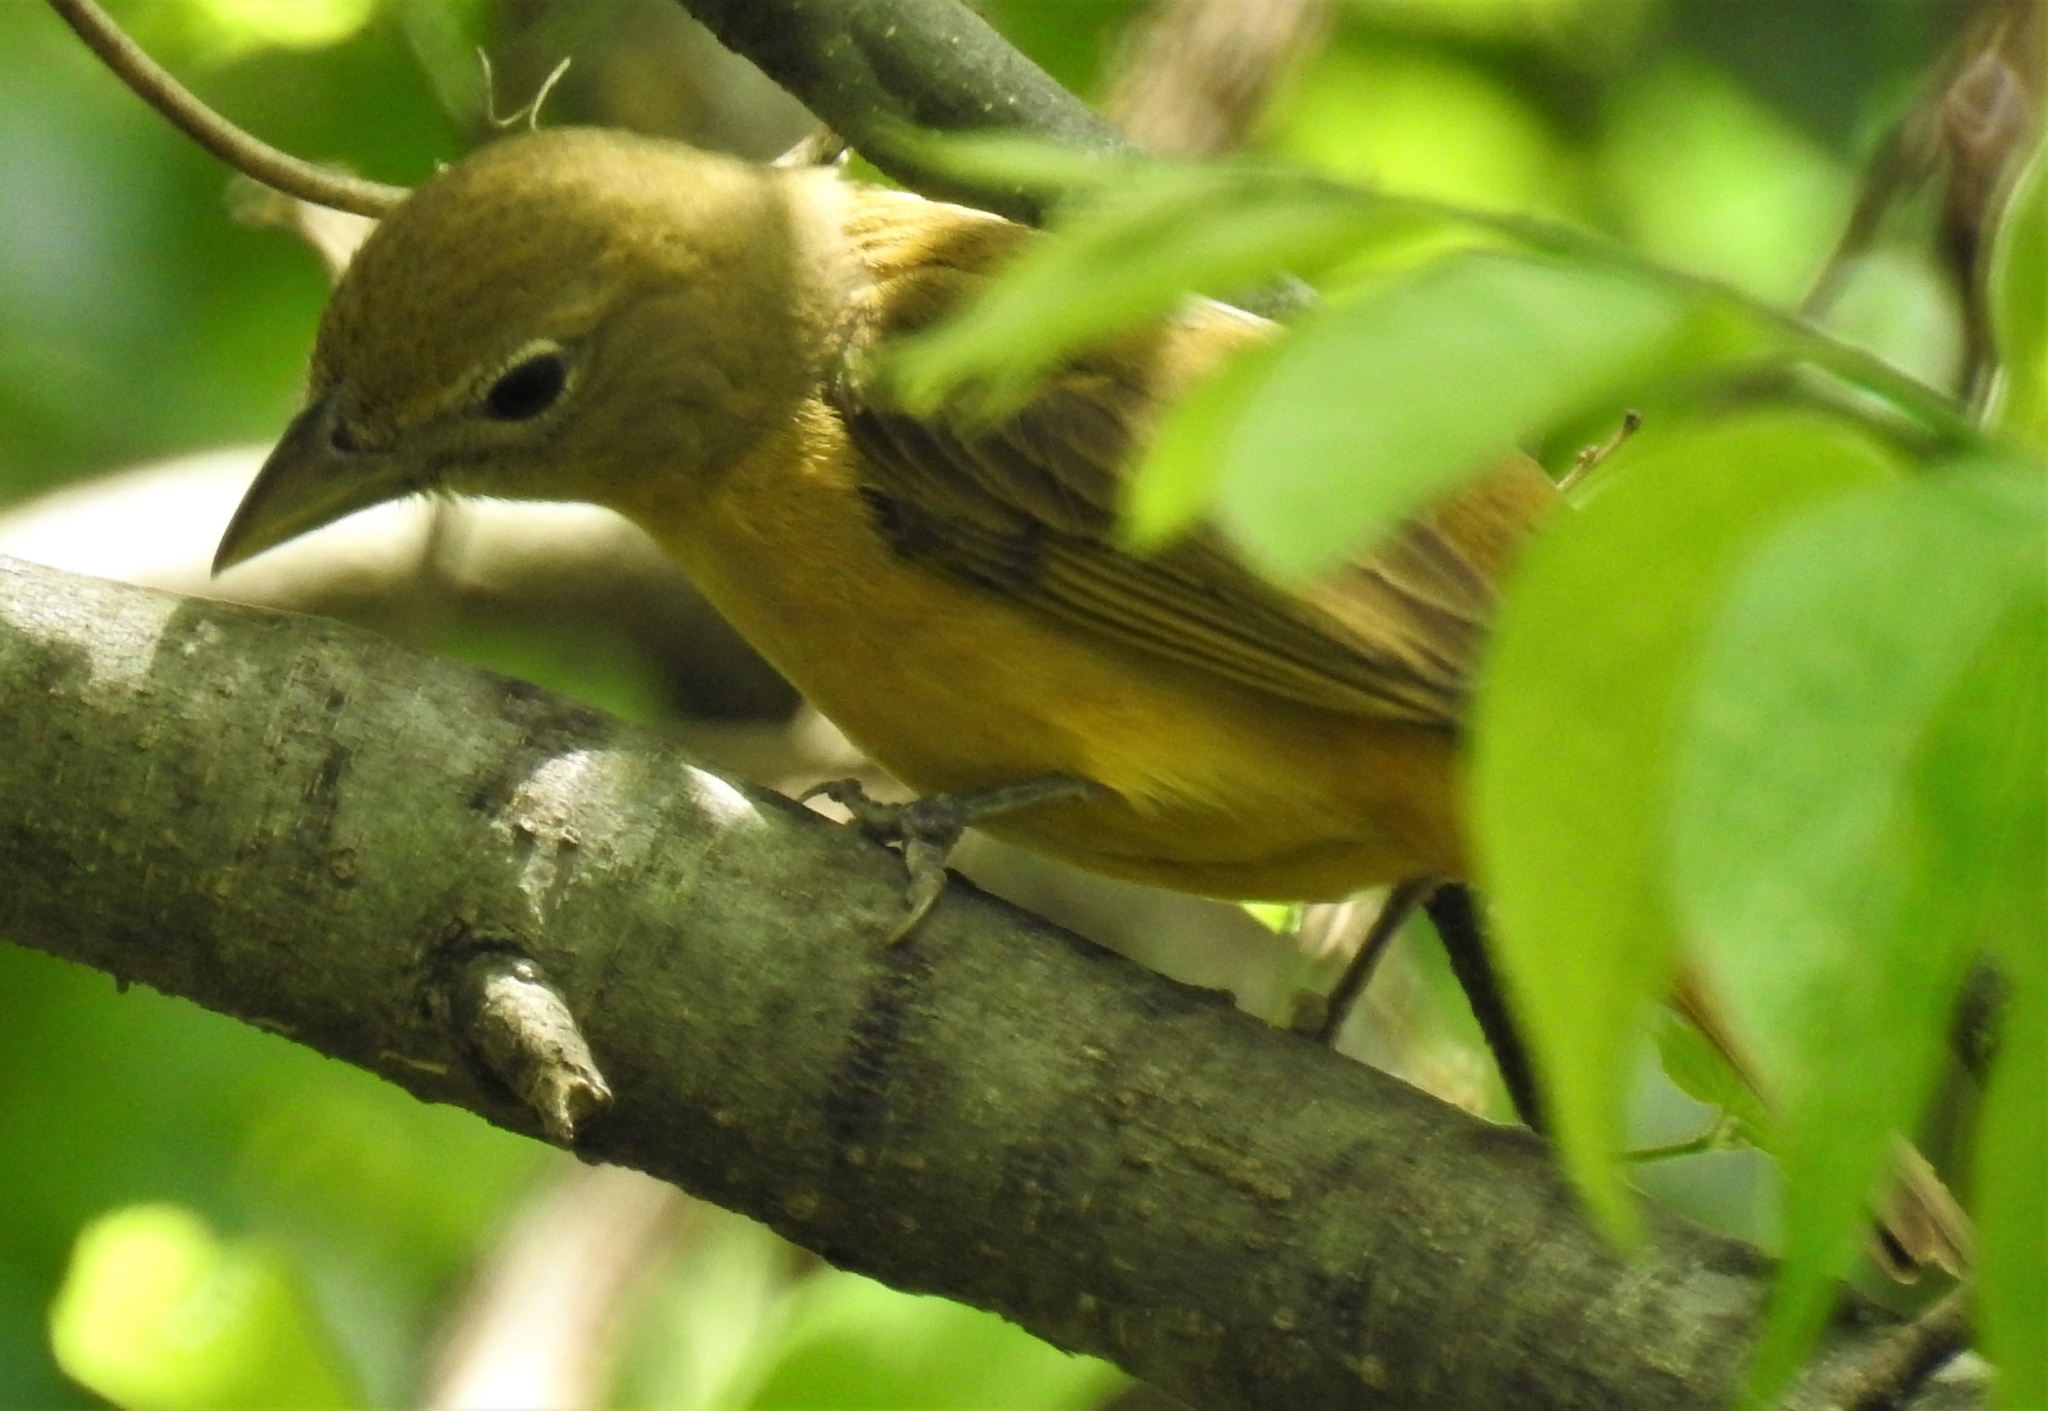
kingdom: Animalia
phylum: Chordata
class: Aves
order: Passeriformes
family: Cardinalidae
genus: Piranga
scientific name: Piranga rubra
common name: Summer tanager
